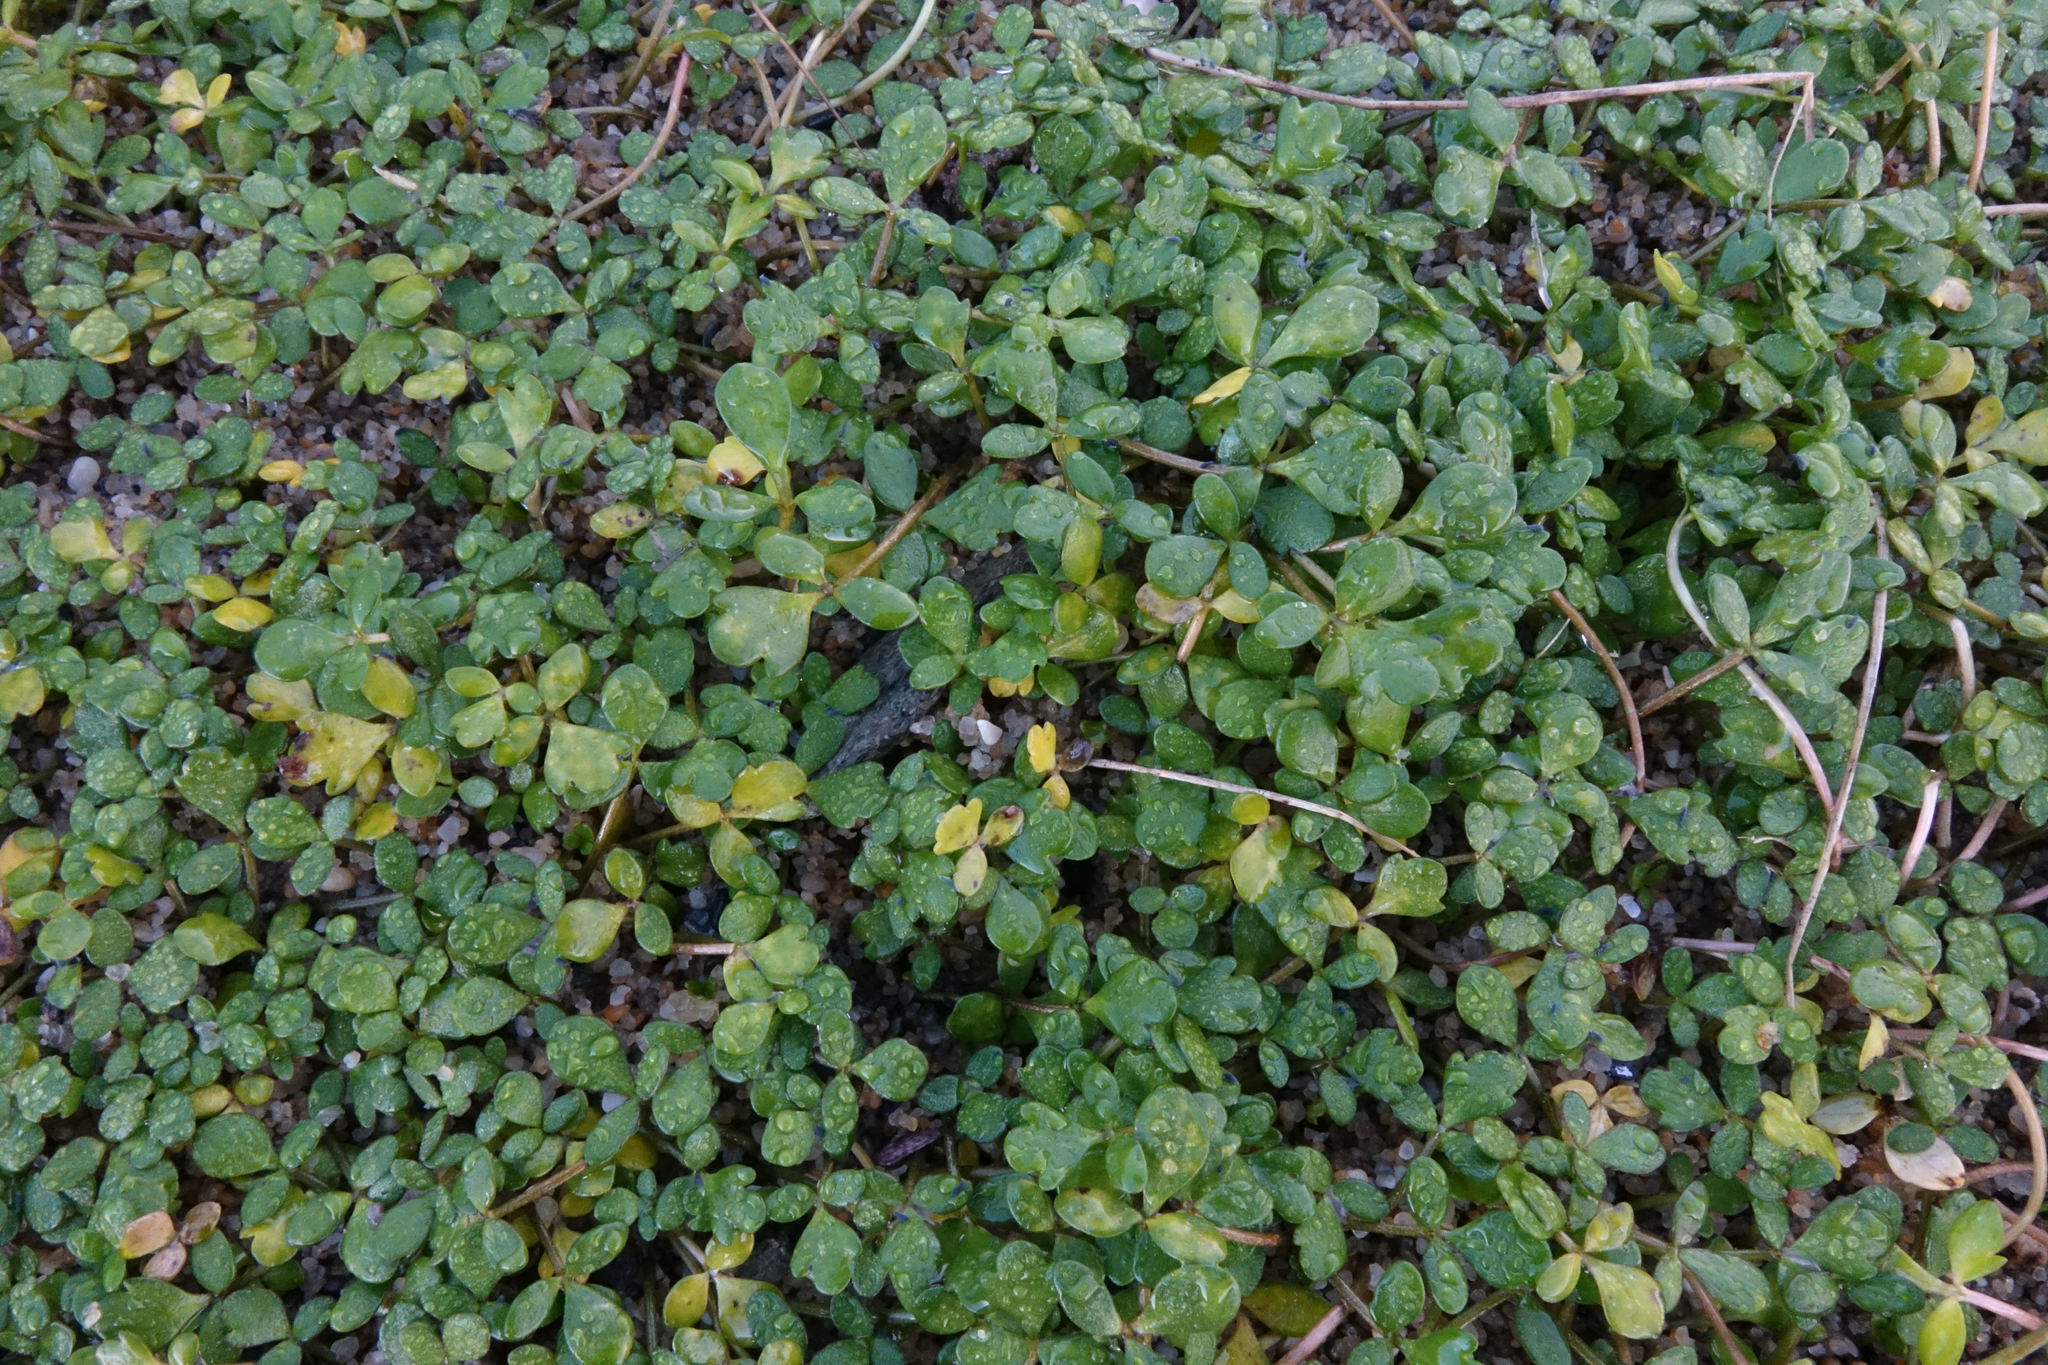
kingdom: Plantae
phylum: Tracheophyta
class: Magnoliopsida
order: Ranunculales
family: Ranunculaceae
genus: Ranunculus
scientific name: Ranunculus acaulis
